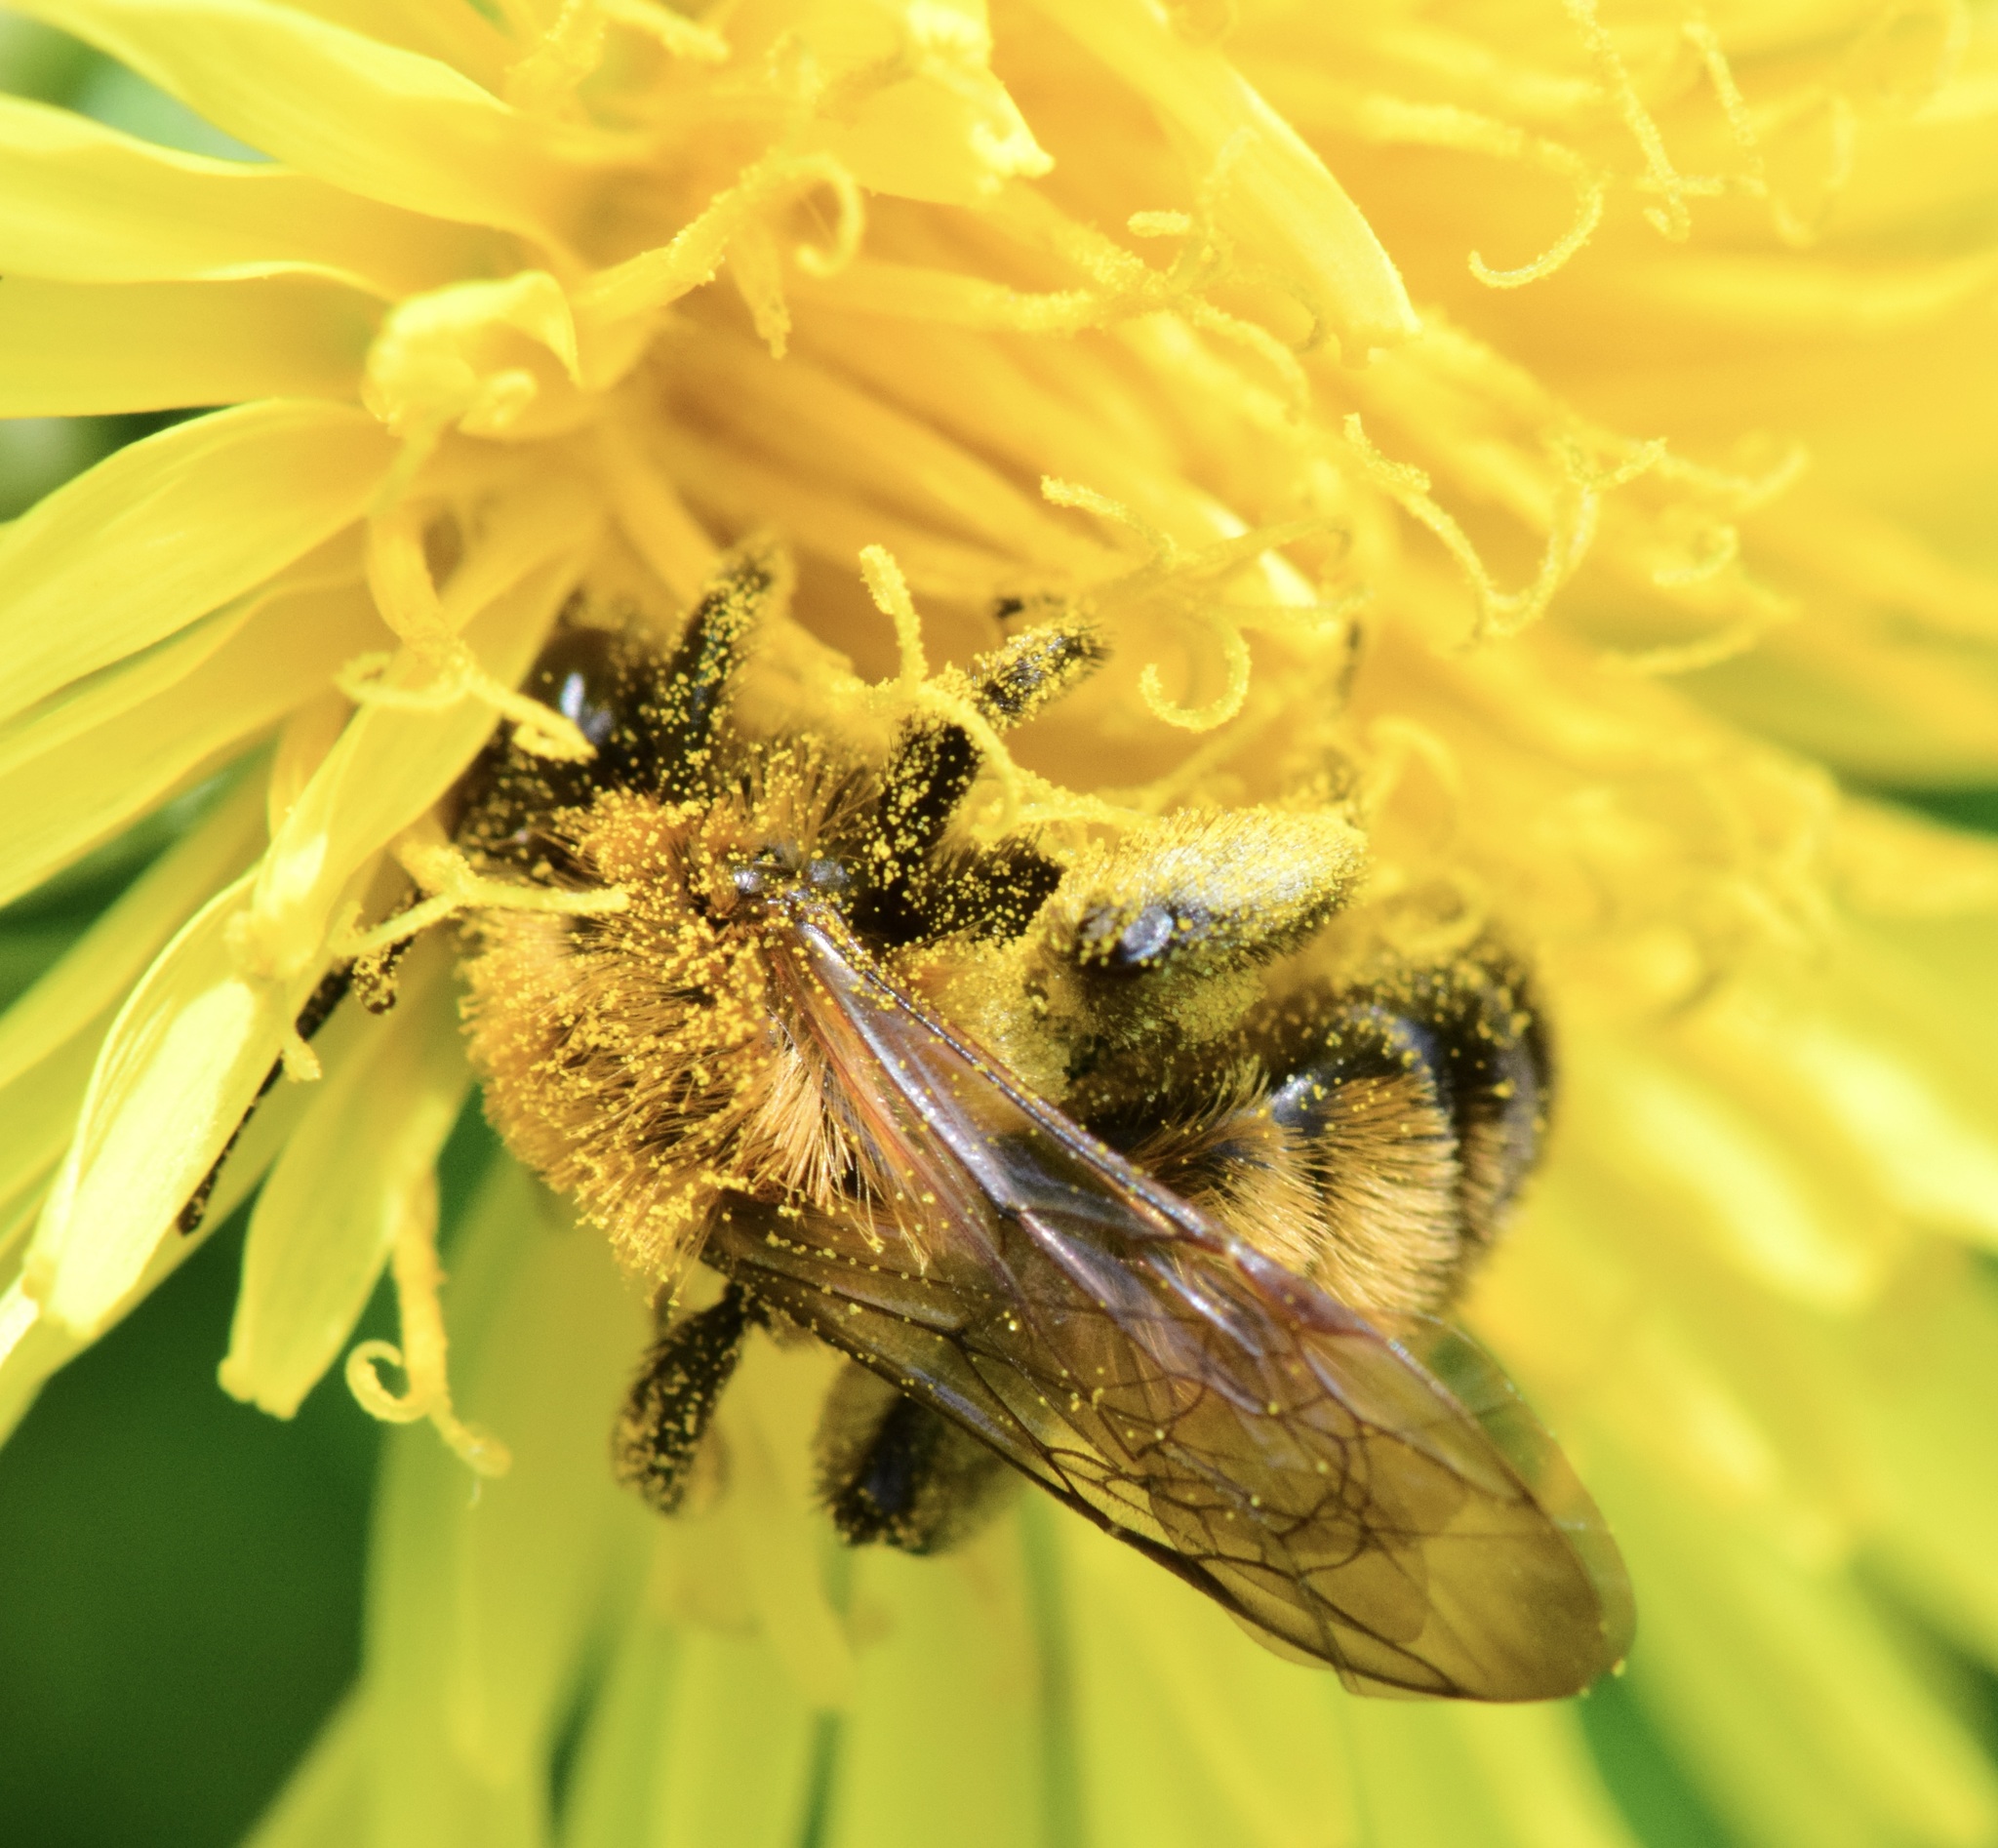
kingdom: Animalia
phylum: Arthropoda
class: Insecta
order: Hymenoptera
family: Andrenidae
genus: Andrena
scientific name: Andrena milwaukeensis
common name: Milwaukee mining bee
